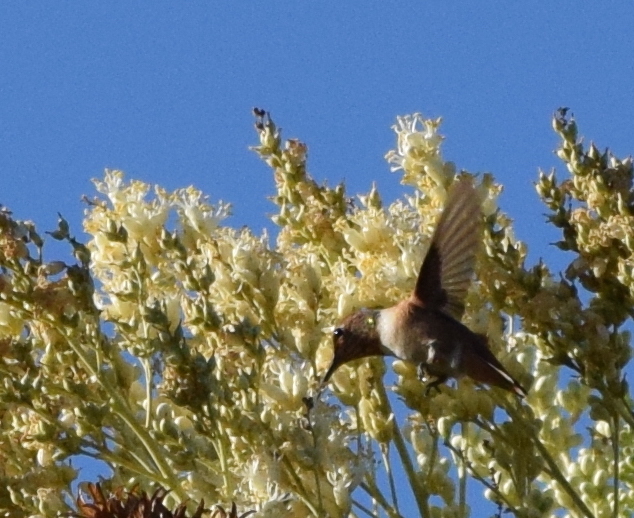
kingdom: Animalia
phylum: Chordata
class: Aves
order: Apodiformes
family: Trochilidae
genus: Selasphorus
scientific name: Selasphorus
